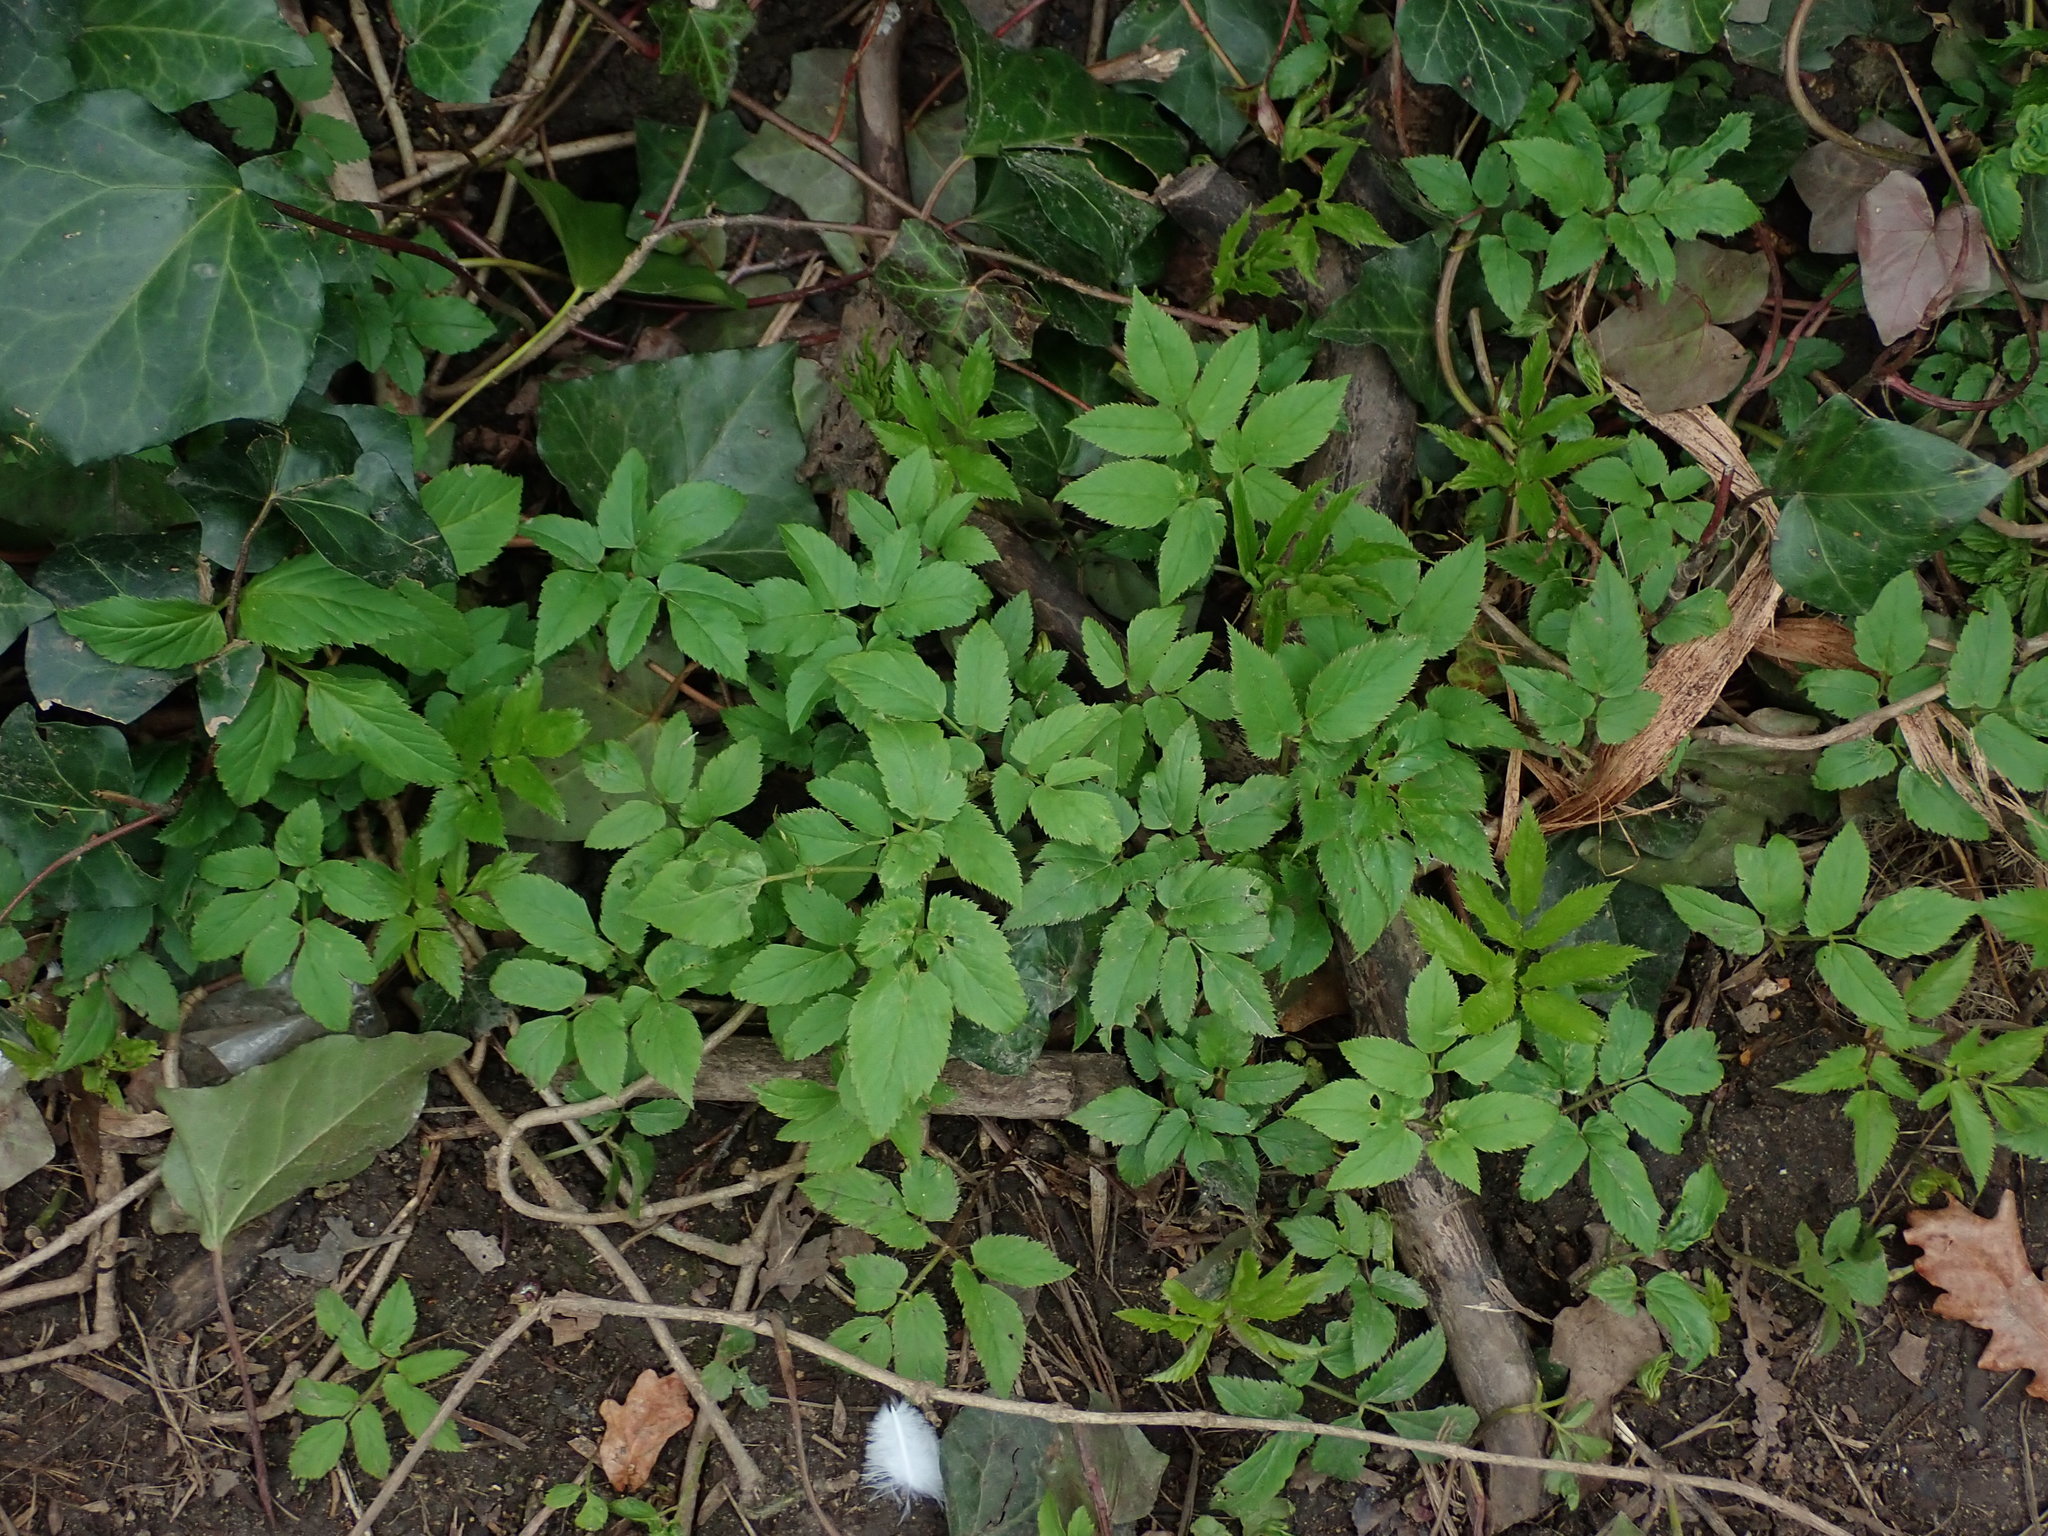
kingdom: Plantae
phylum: Tracheophyta
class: Magnoliopsida
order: Apiales
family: Apiaceae
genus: Aegopodium
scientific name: Aegopodium podagraria
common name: Ground-elder
